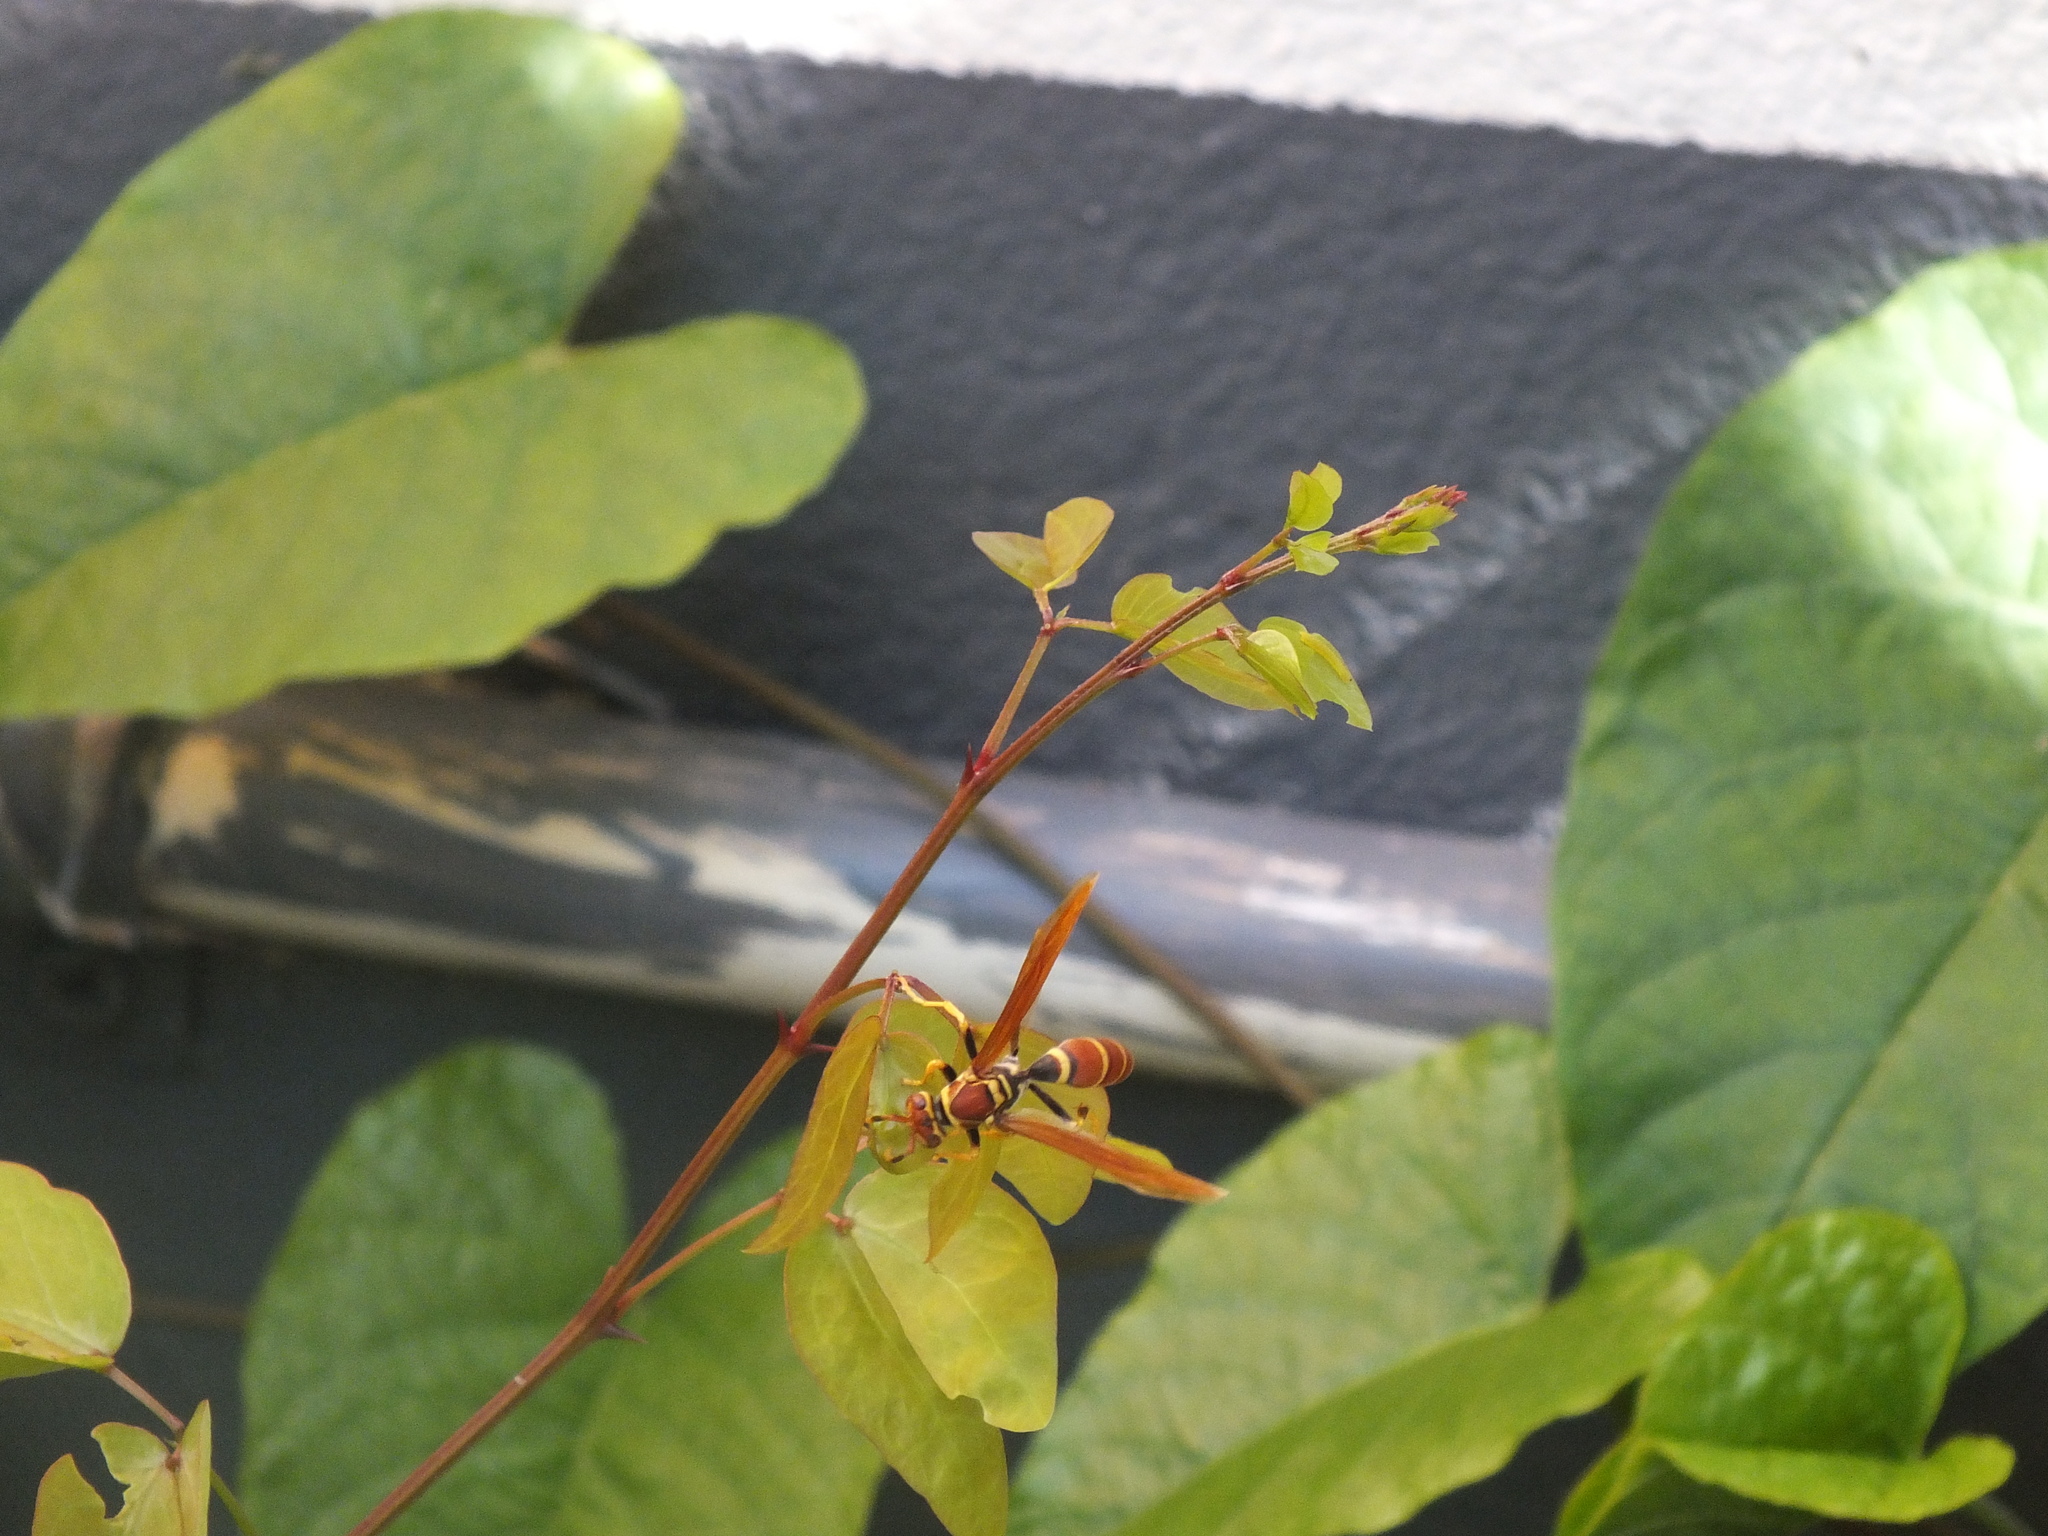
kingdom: Animalia
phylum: Arthropoda
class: Insecta
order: Hymenoptera
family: Eumenidae
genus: Polistes
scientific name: Polistes crinitus
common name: Jack spaniard
